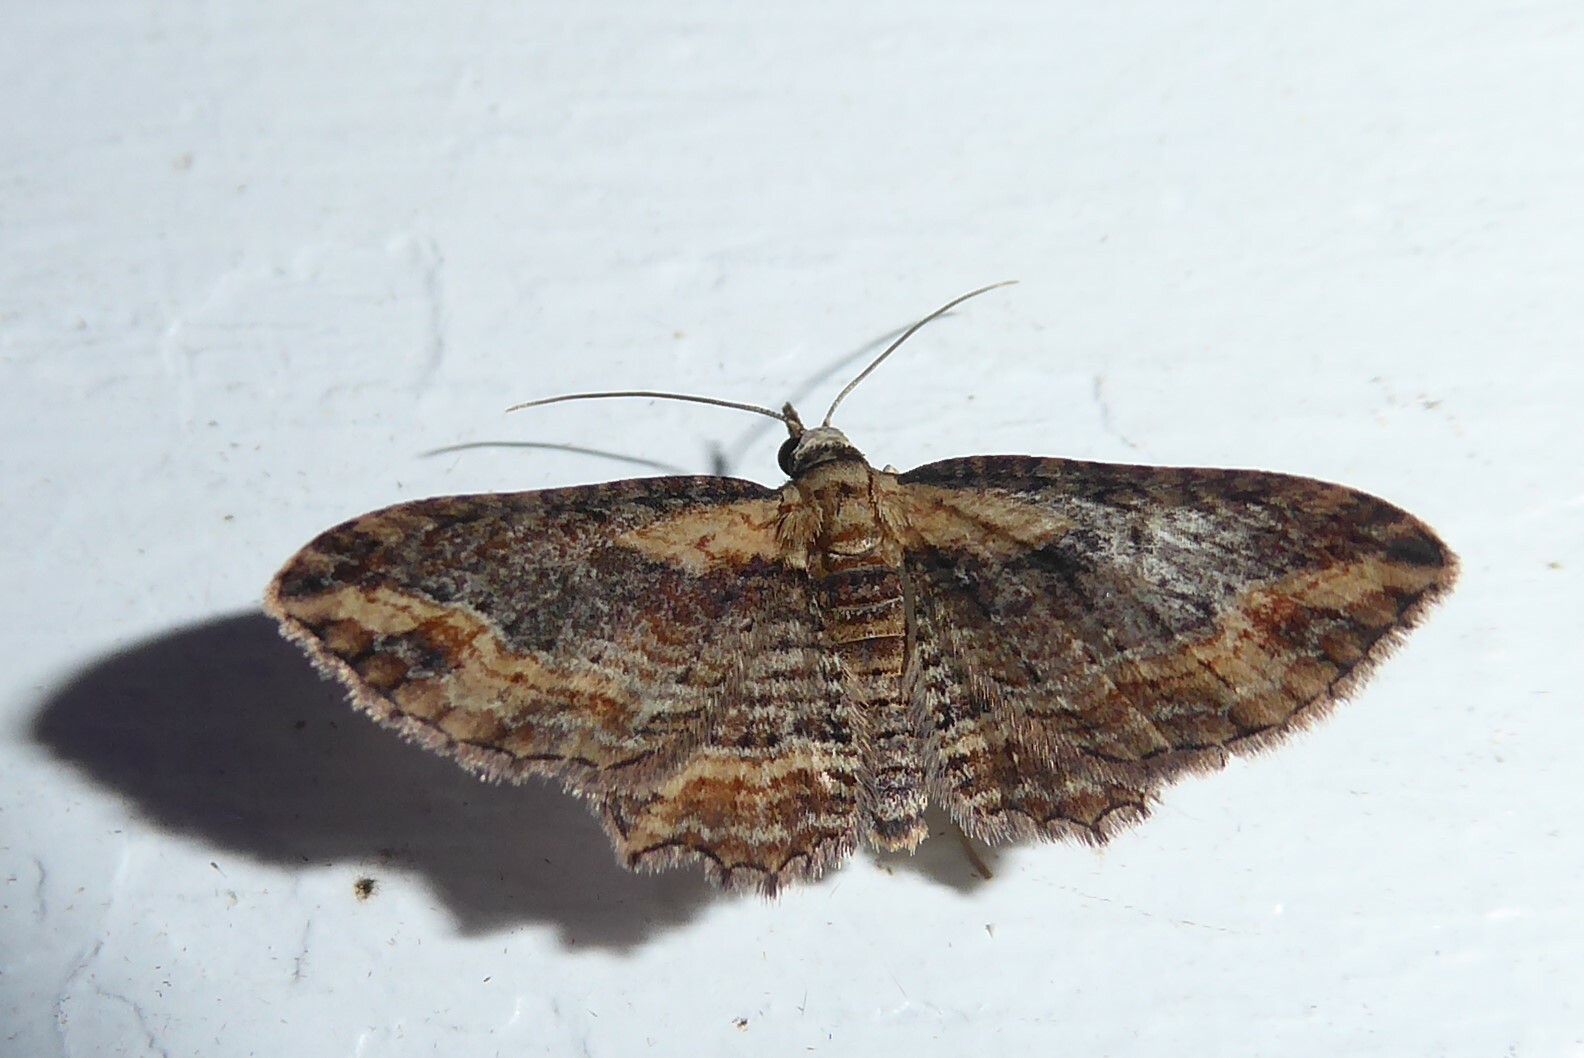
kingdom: Animalia
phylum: Arthropoda
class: Insecta
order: Lepidoptera
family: Geometridae
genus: Chloroclystis
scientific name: Chloroclystis filata
